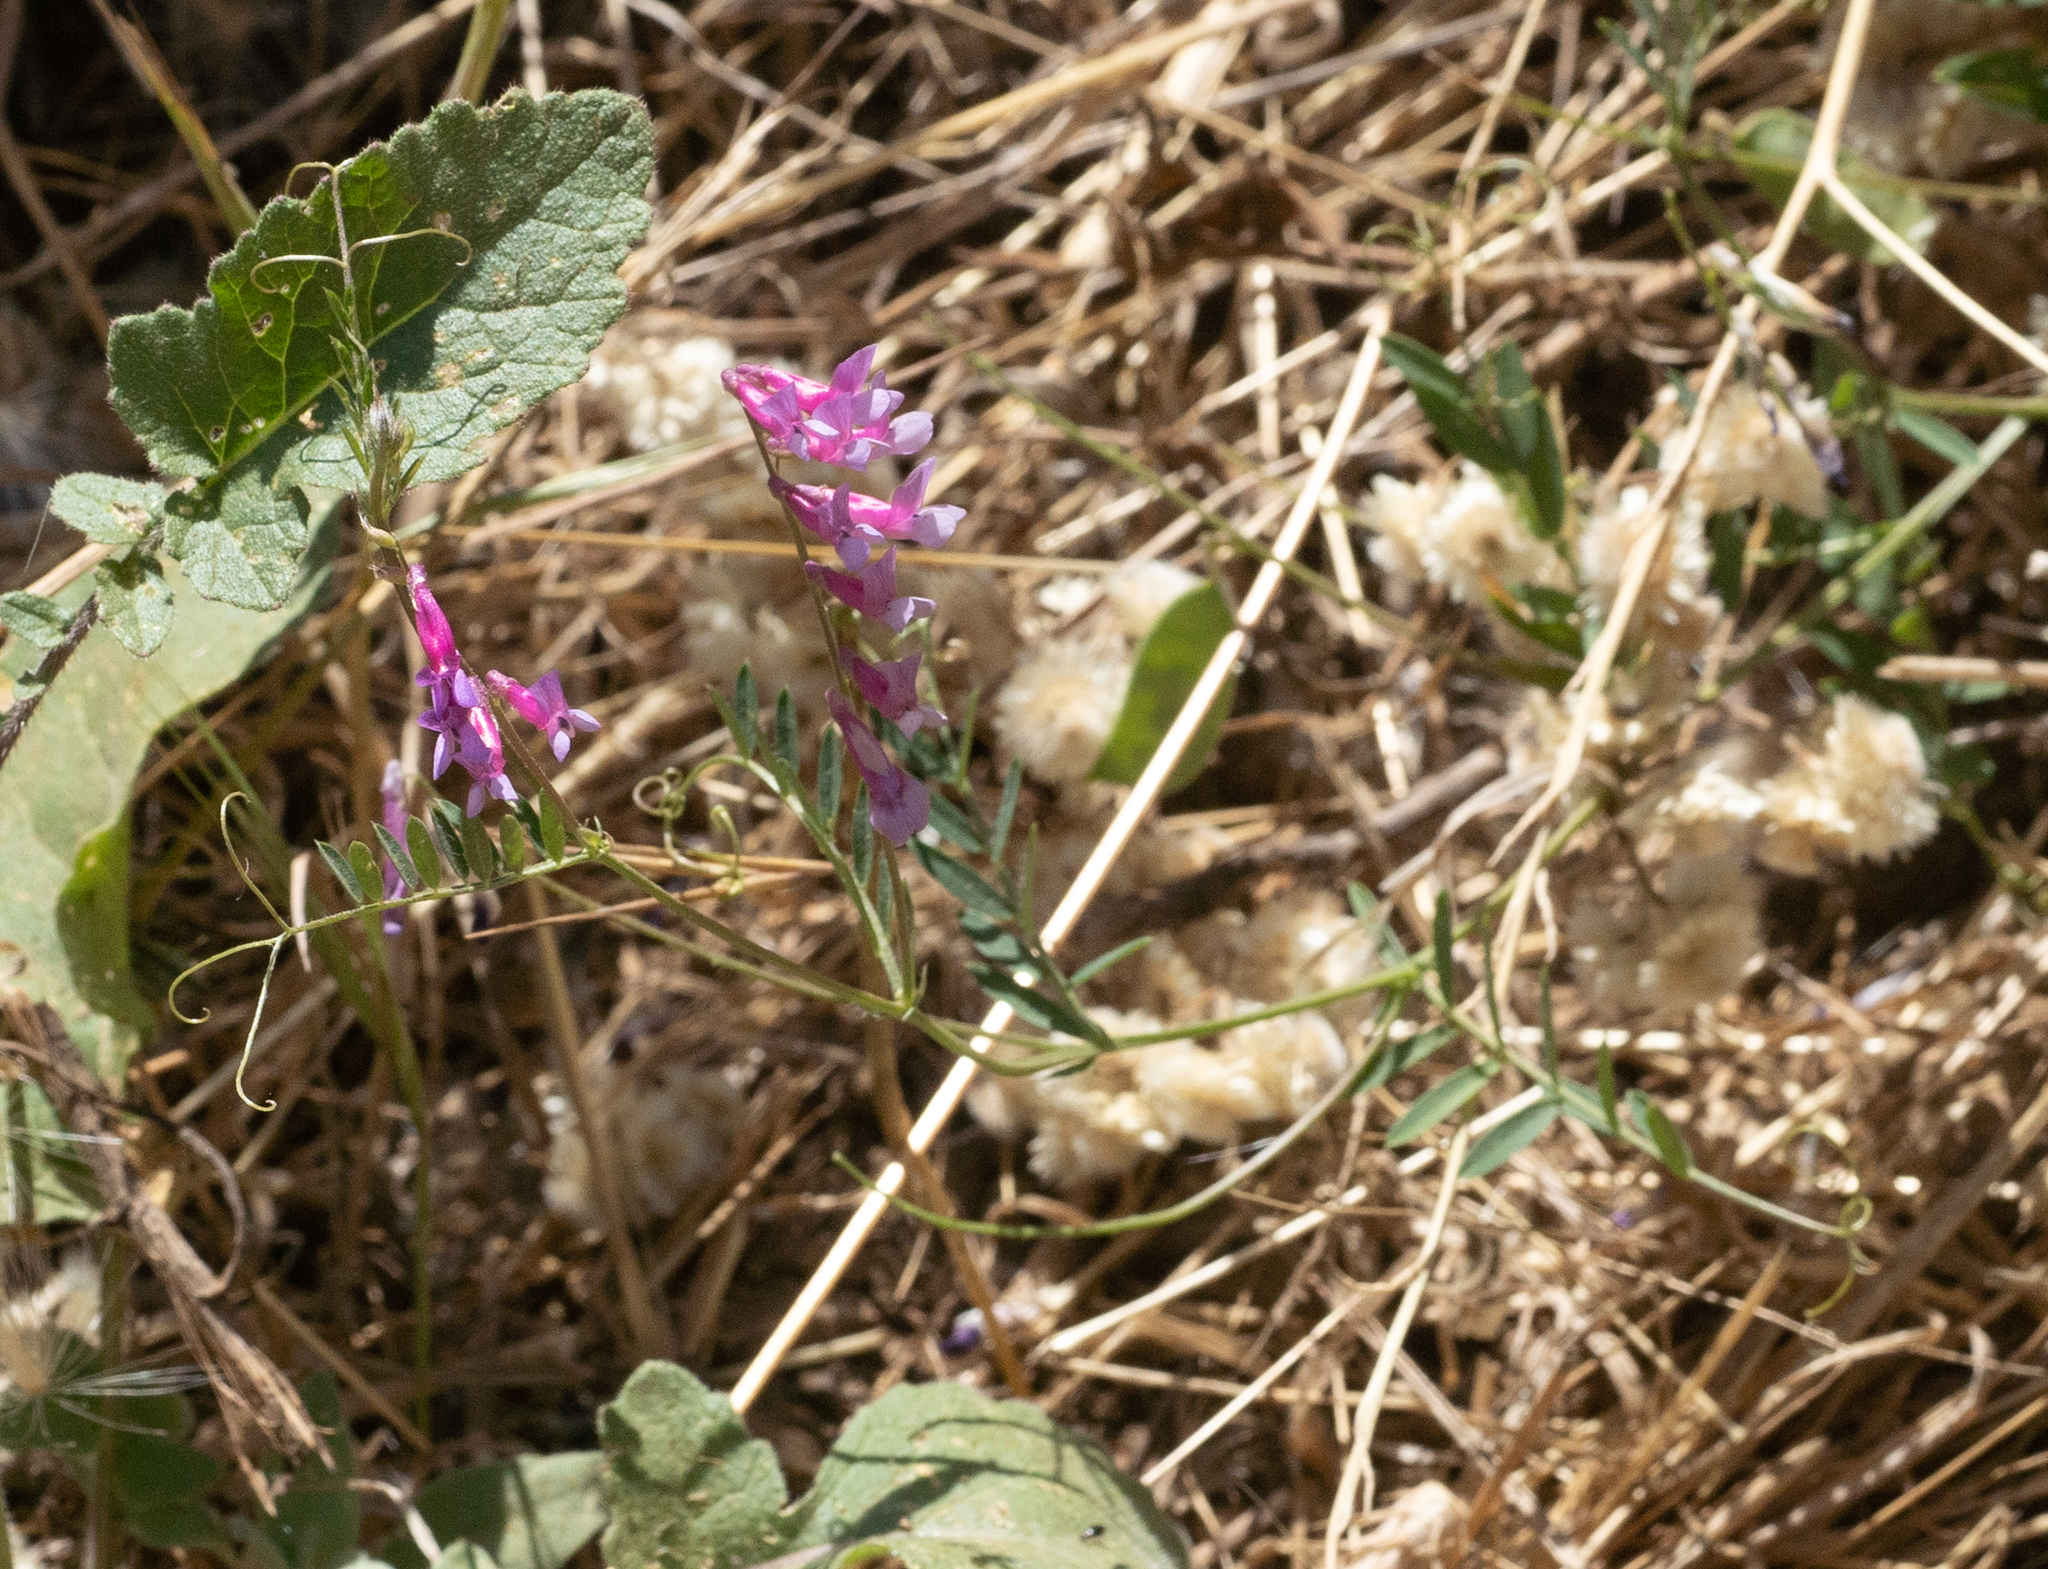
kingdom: Plantae
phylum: Tracheophyta
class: Magnoliopsida
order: Fabales
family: Fabaceae
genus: Vicia
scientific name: Vicia villosa
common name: Fodder vetch
